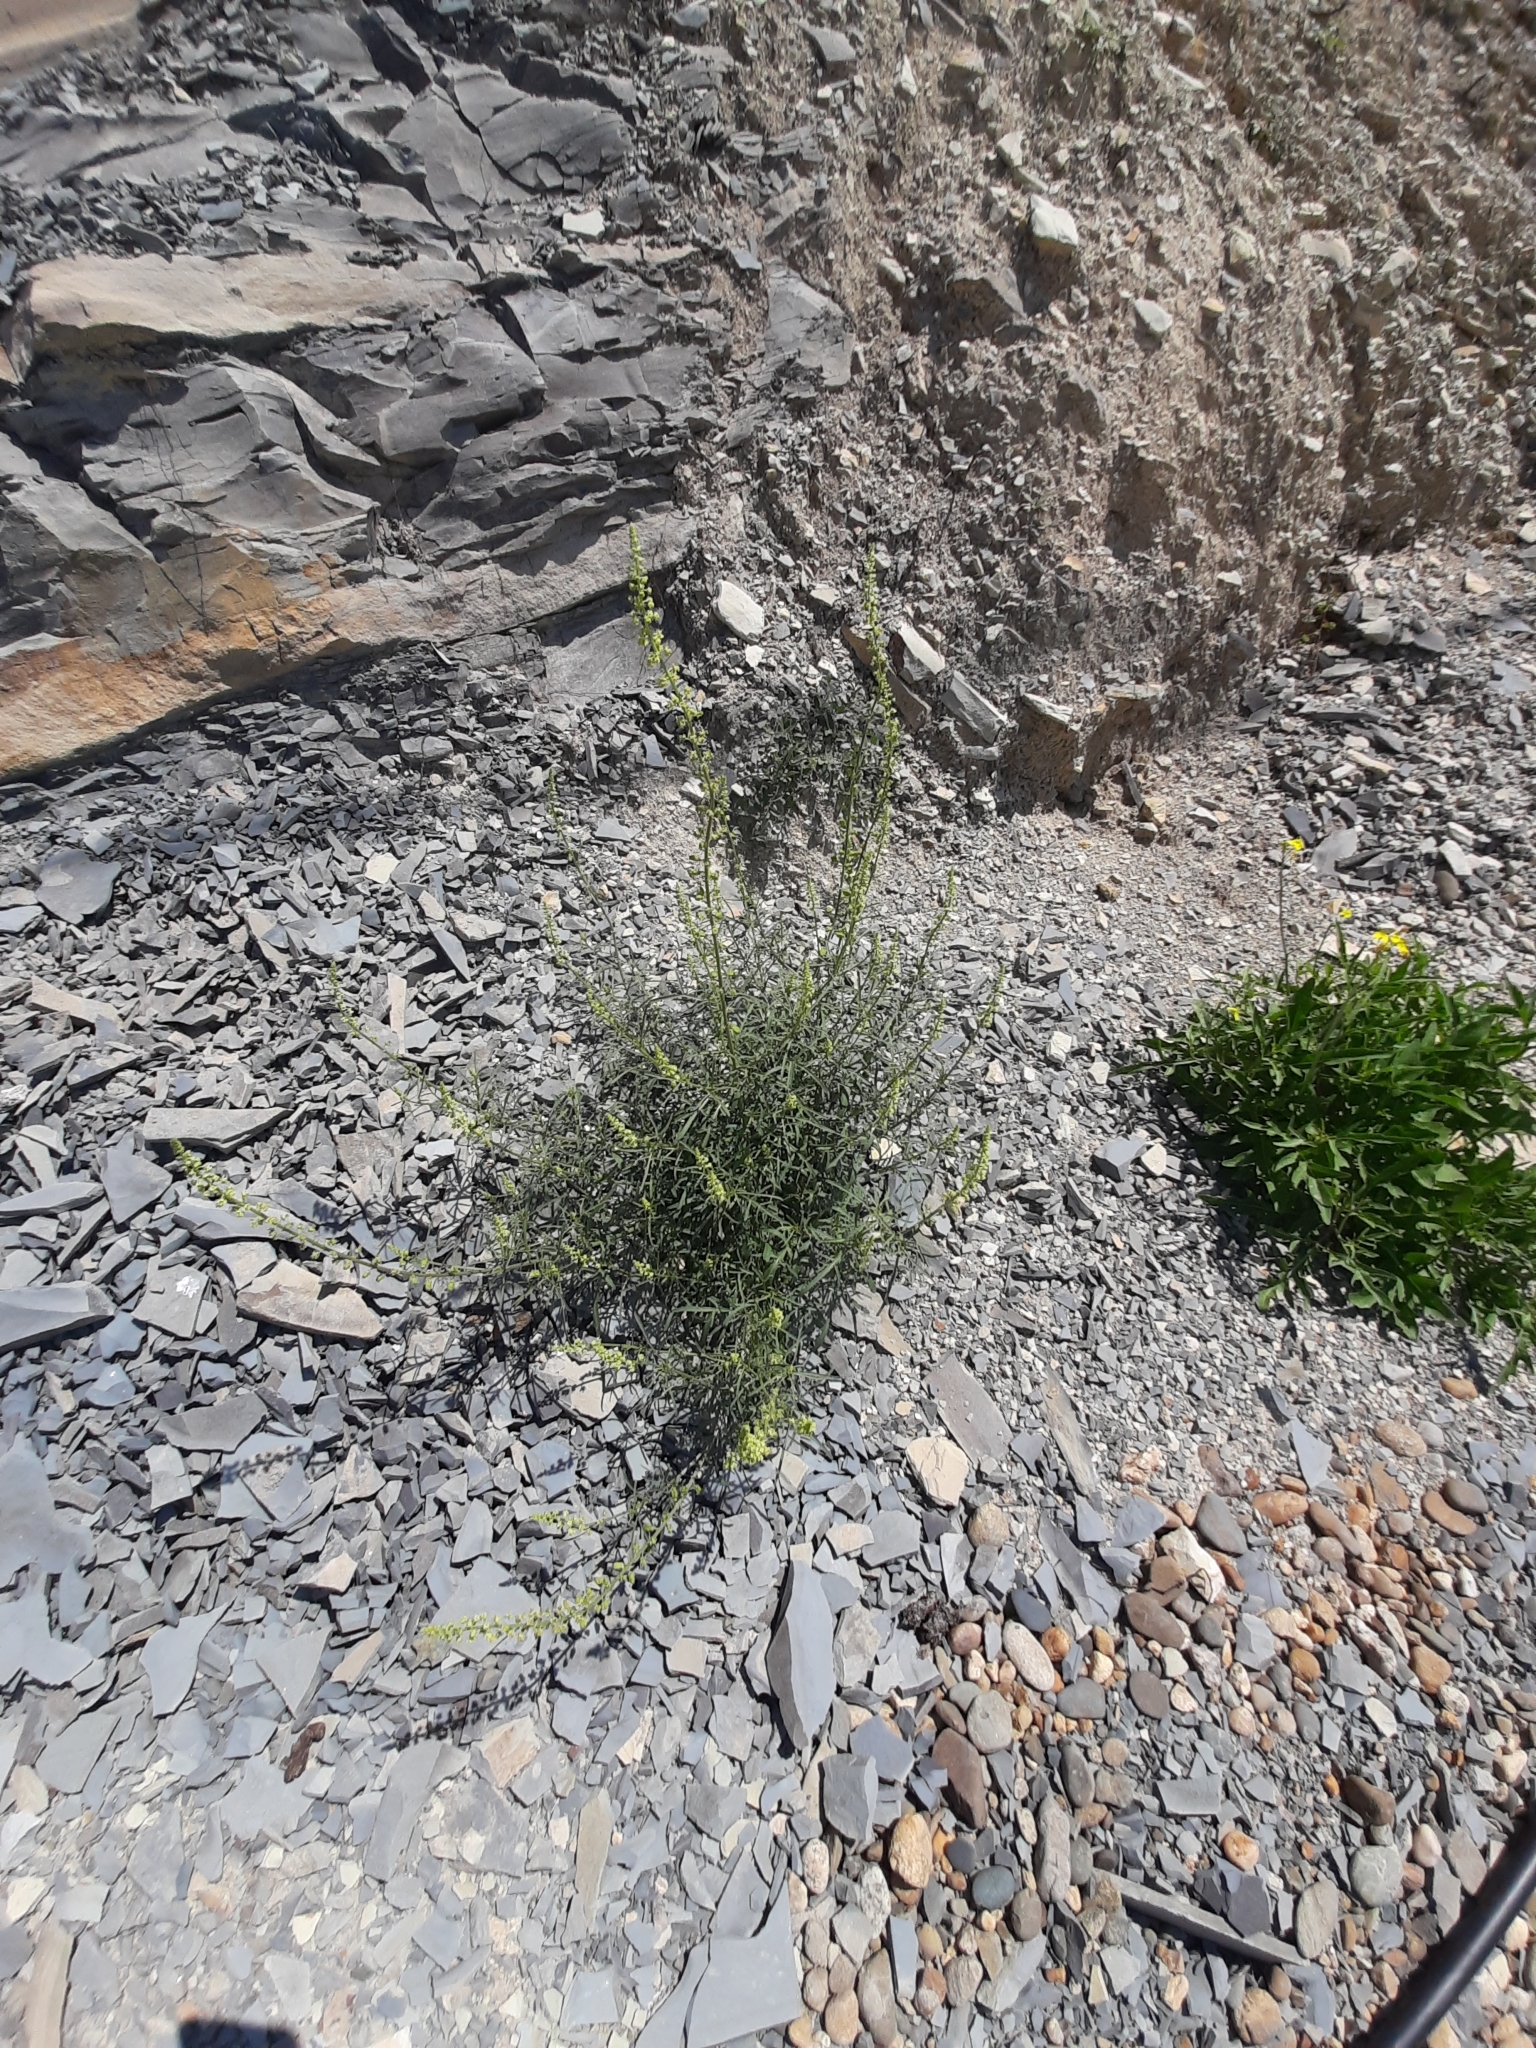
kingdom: Plantae
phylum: Tracheophyta
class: Magnoliopsida
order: Brassicales
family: Resedaceae
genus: Reseda
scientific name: Reseda lutea
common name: Wild mignonette
